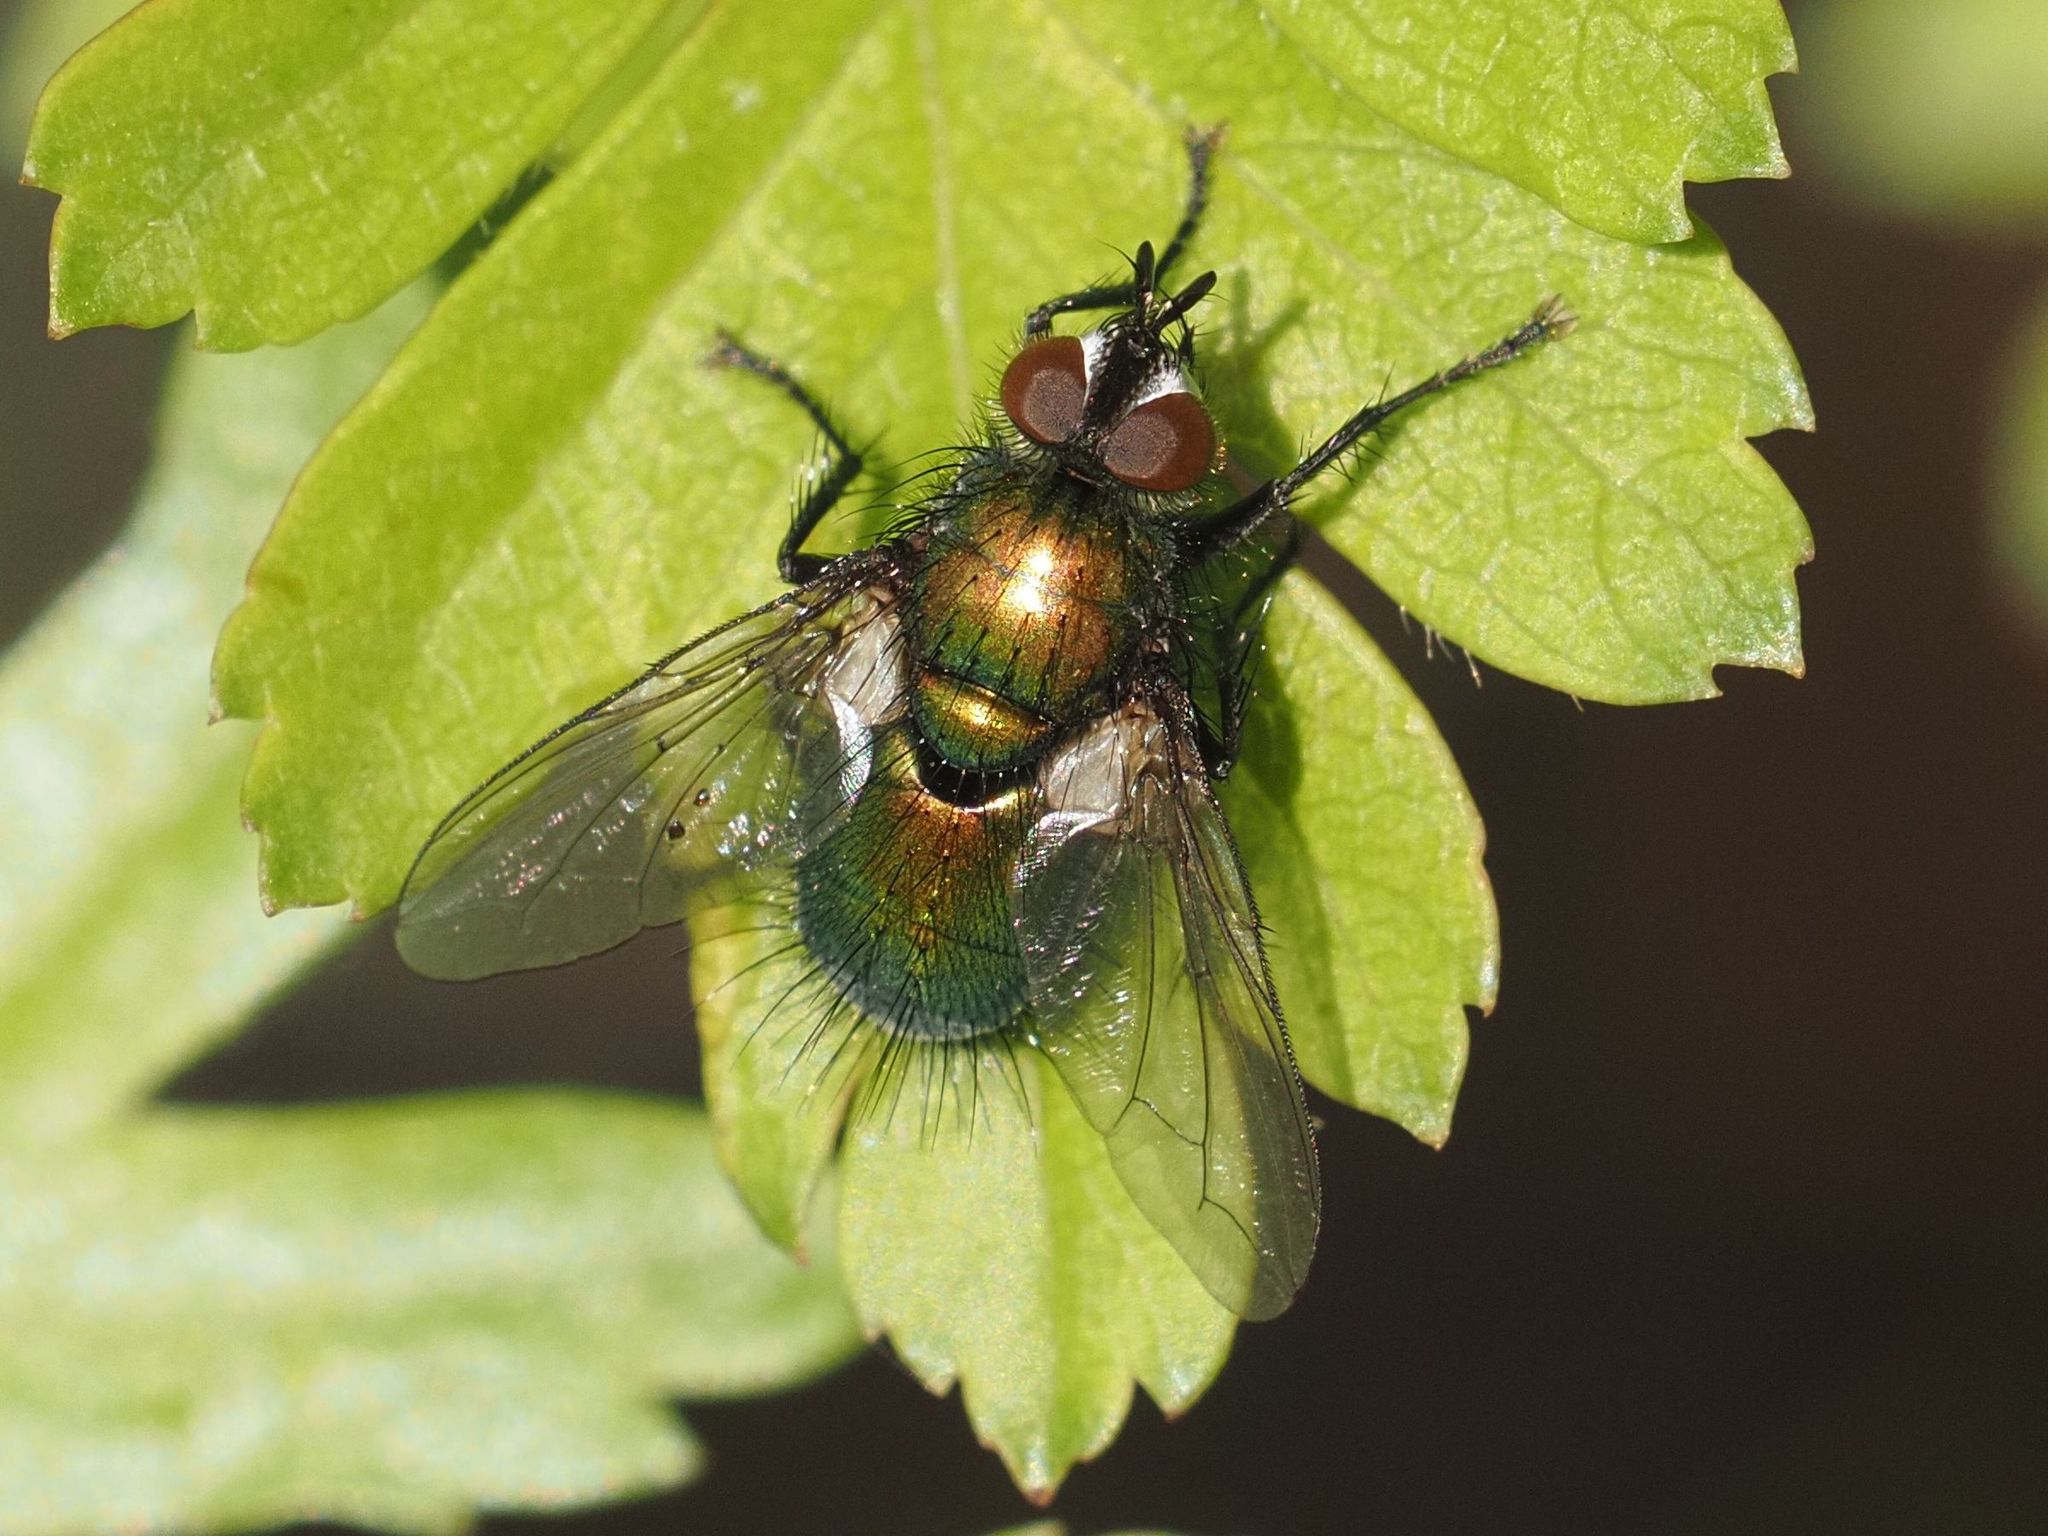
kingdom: Animalia
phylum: Arthropoda
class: Insecta
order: Diptera
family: Tachinidae
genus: Gymnocheta
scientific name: Gymnocheta viridis
